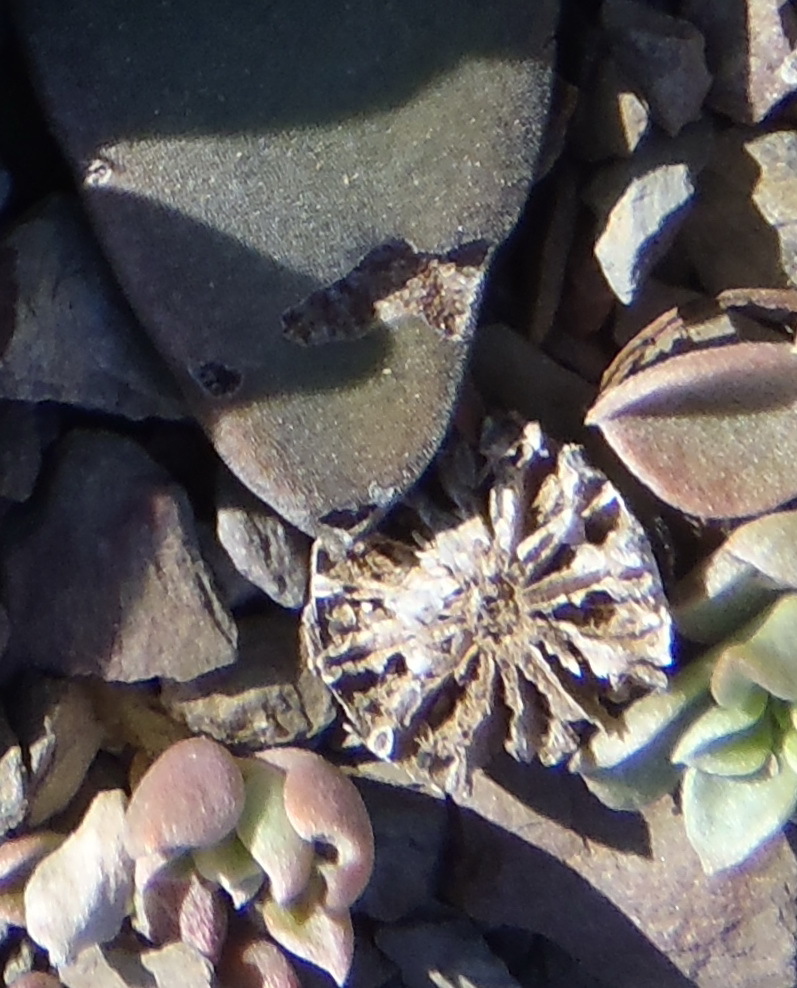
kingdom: Plantae
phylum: Tracheophyta
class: Magnoliopsida
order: Caryophyllales
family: Aizoaceae
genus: Deilanthe
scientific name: Deilanthe peersii
